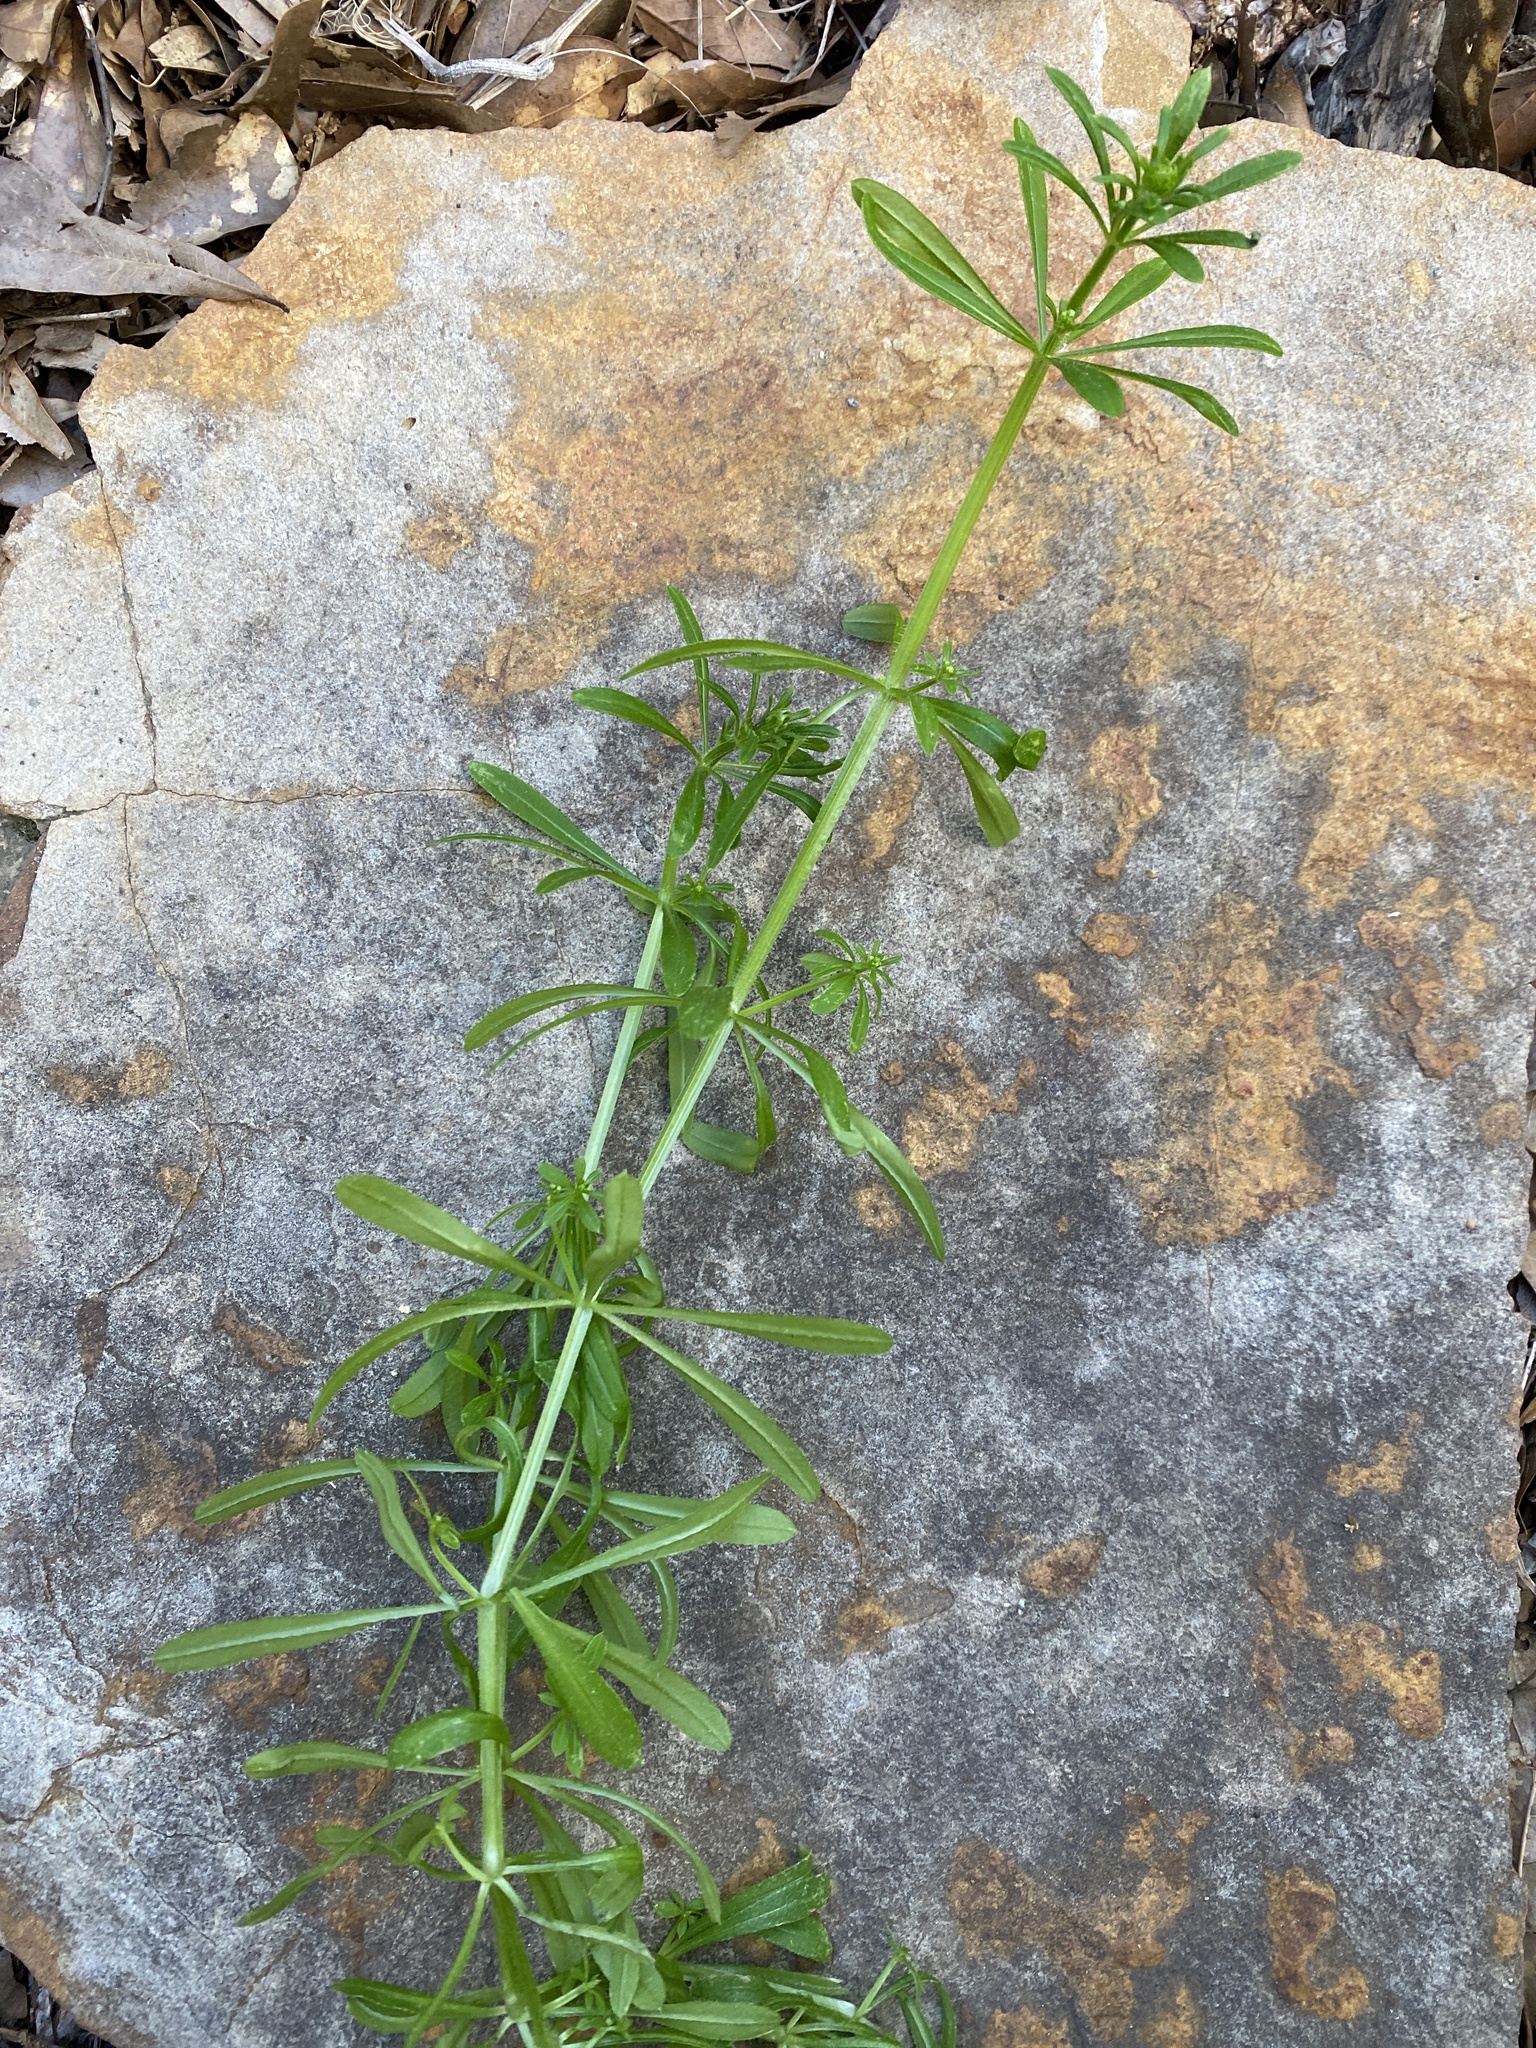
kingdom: Plantae
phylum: Tracheophyta
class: Magnoliopsida
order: Gentianales
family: Rubiaceae
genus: Galium
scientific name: Galium aparine
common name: Cleavers
